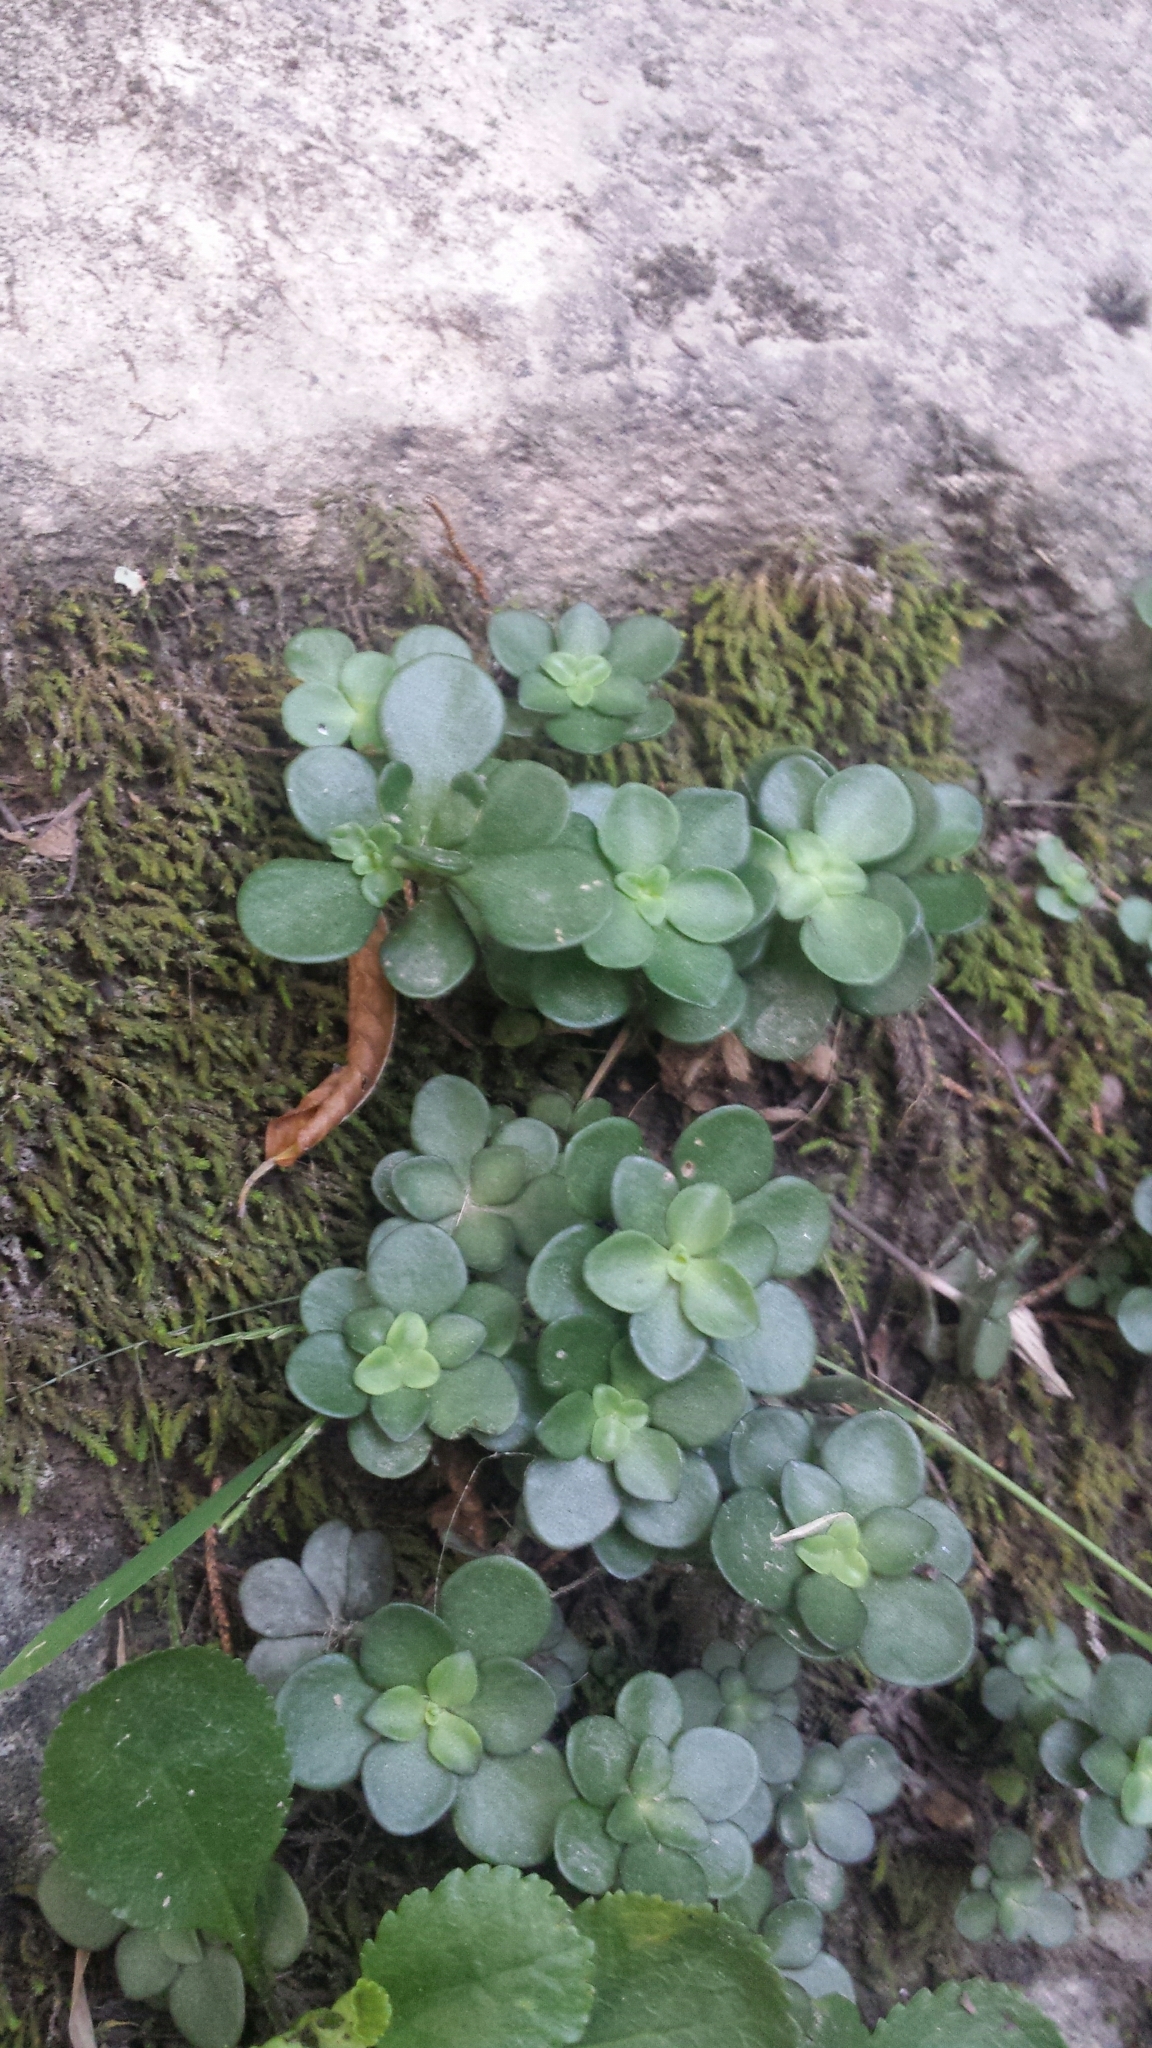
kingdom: Plantae
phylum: Tracheophyta
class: Magnoliopsida
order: Saxifragales
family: Crassulaceae
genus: Sedum
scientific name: Sedum ternatum
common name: Wild stonecrop
